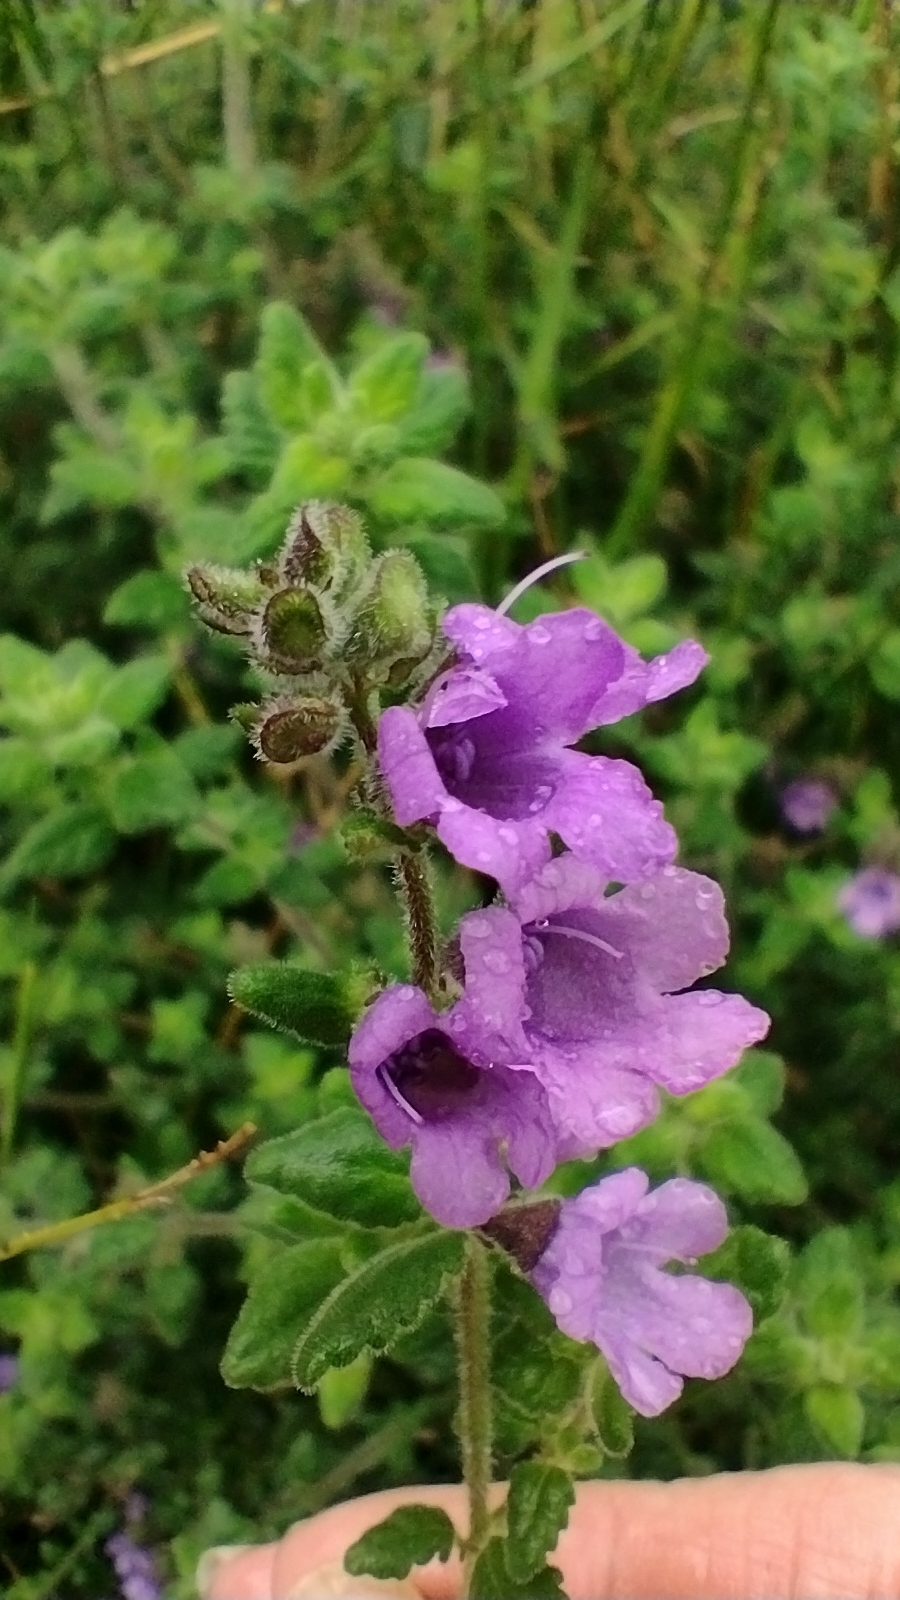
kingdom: Plantae
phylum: Tracheophyta
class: Magnoliopsida
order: Lamiales
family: Lamiaceae
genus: Prostanthera
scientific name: Prostanthera incana
